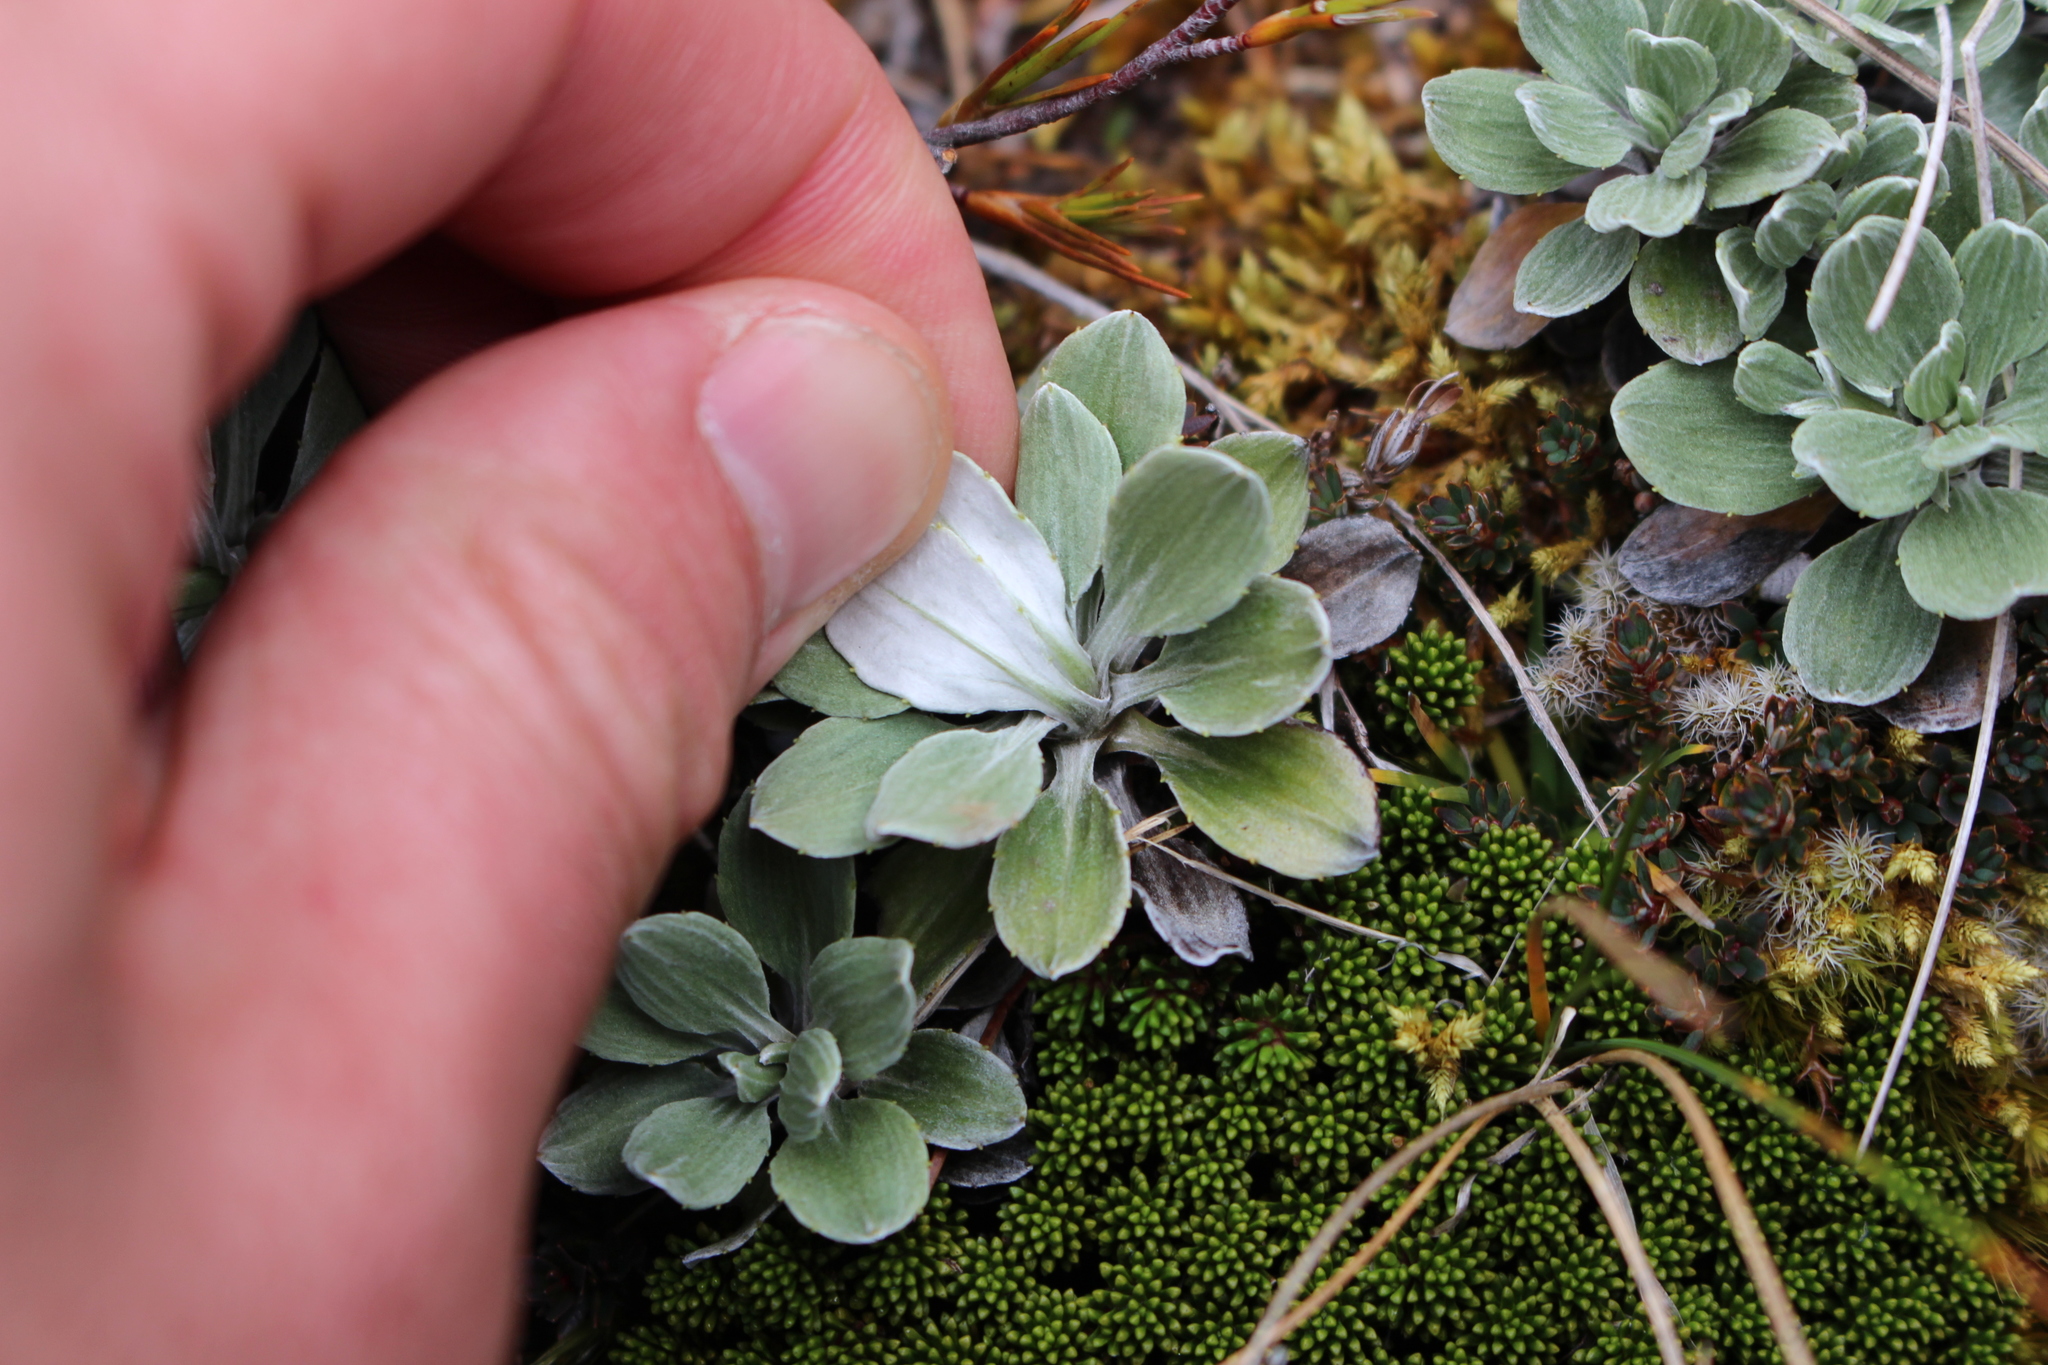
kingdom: Plantae
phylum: Tracheophyta
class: Magnoliopsida
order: Asterales
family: Asteraceae
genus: Celmisia
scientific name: Celmisia discolor
